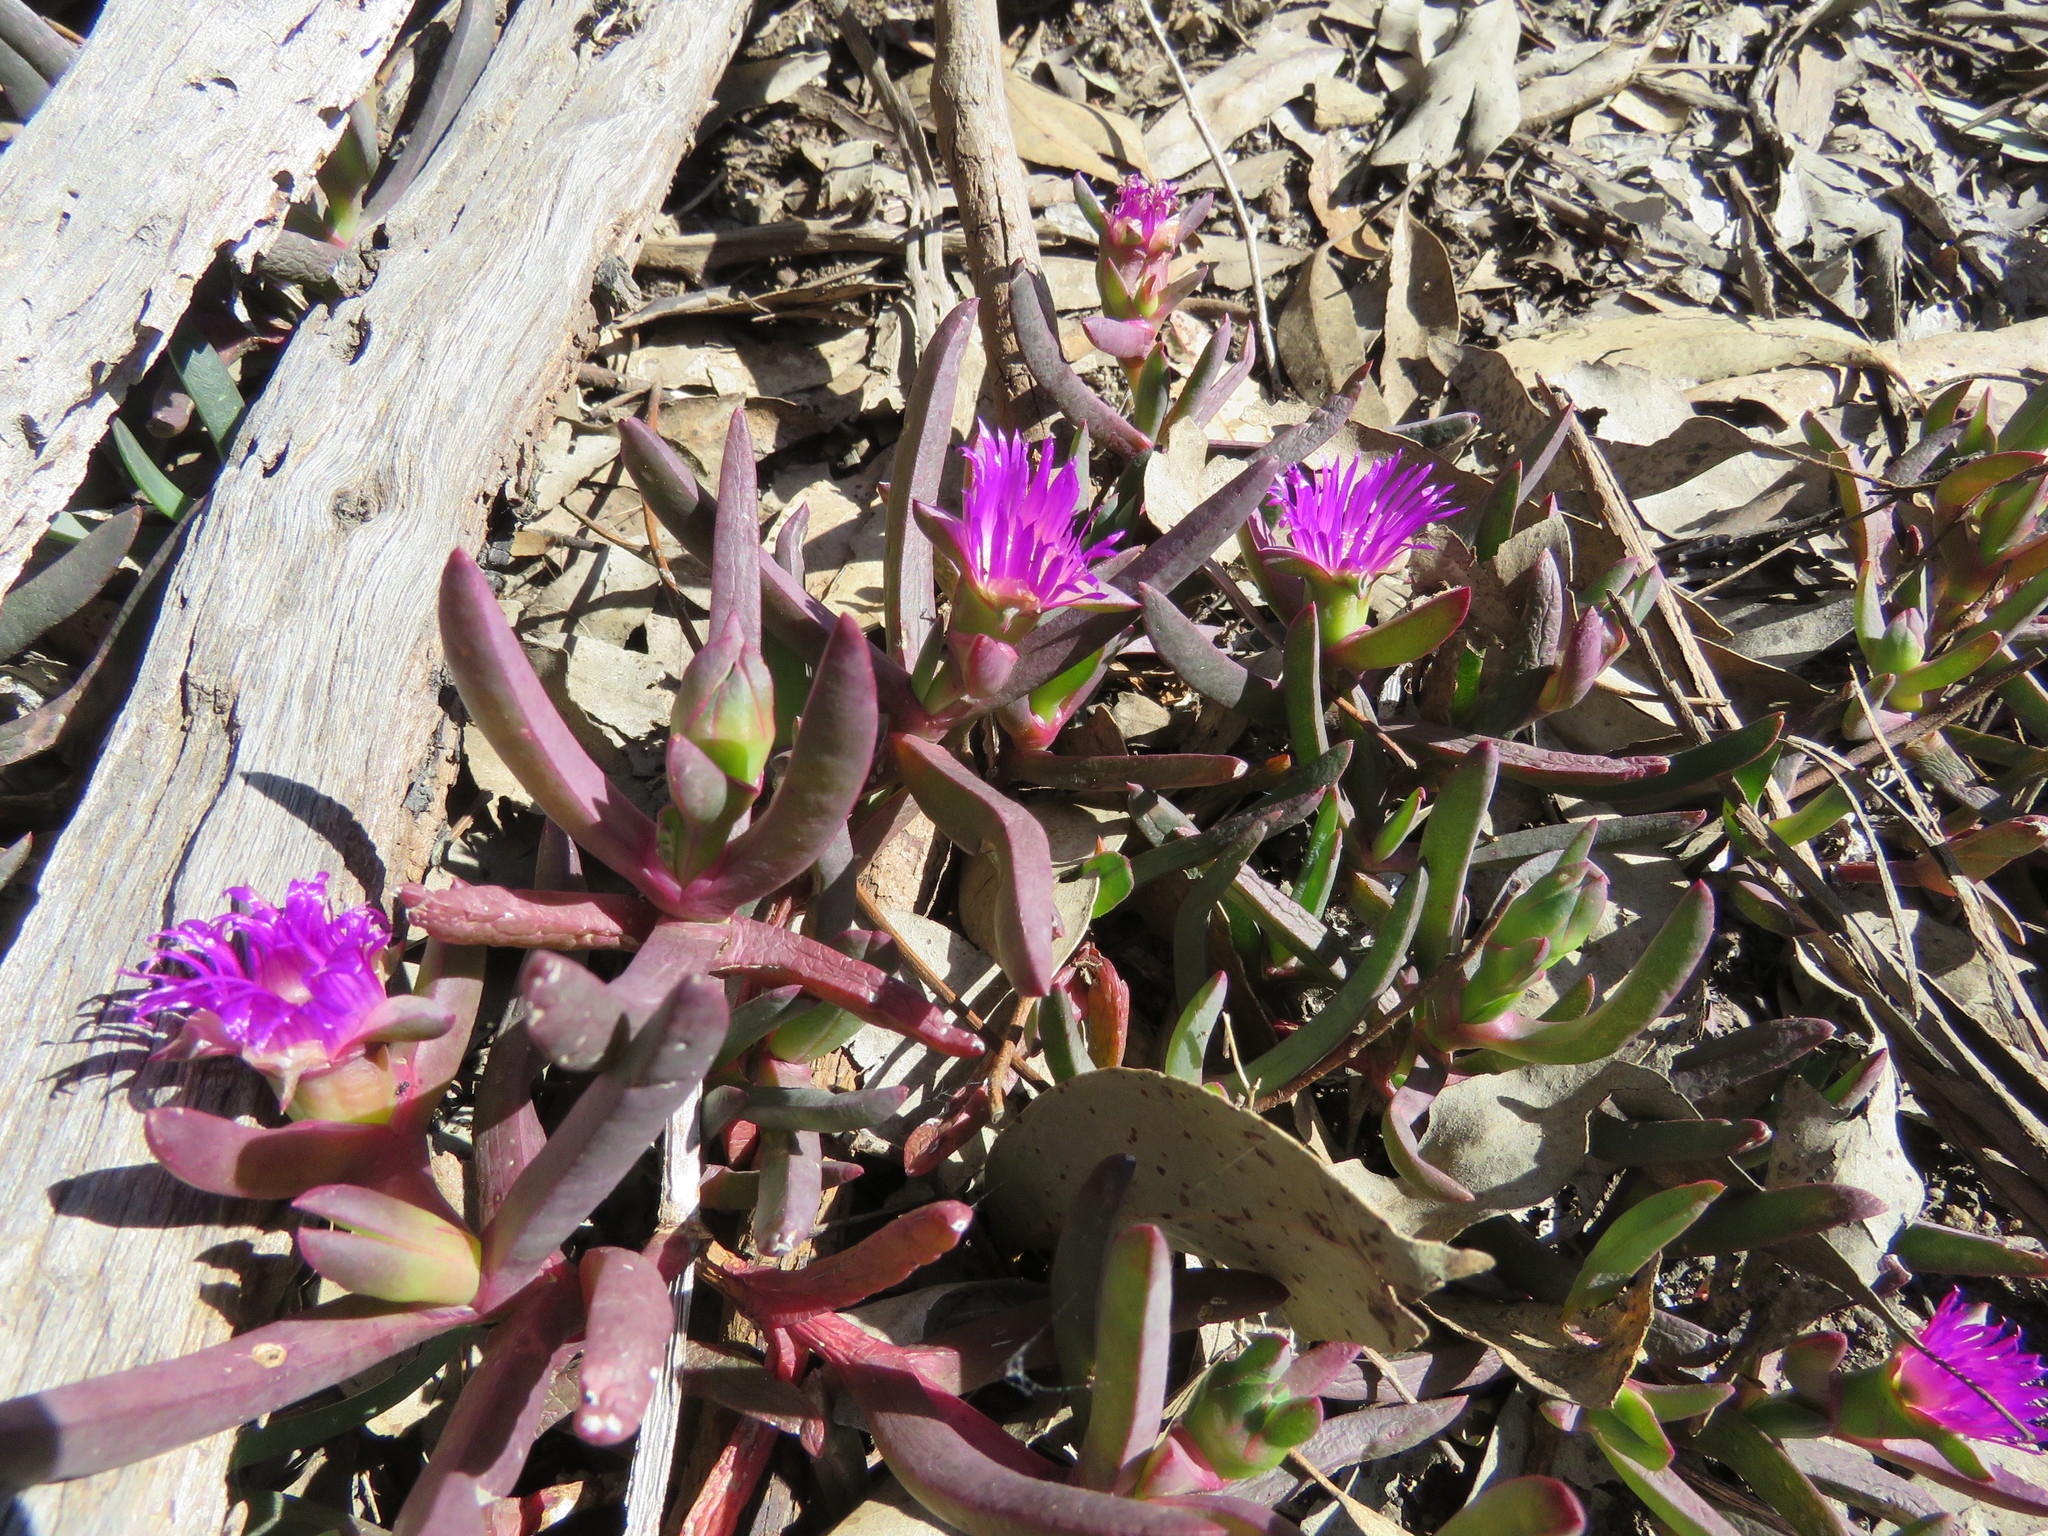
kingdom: Plantae
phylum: Tracheophyta
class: Magnoliopsida
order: Caryophyllales
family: Aizoaceae
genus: Carpobrotus
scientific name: Carpobrotus modestus
